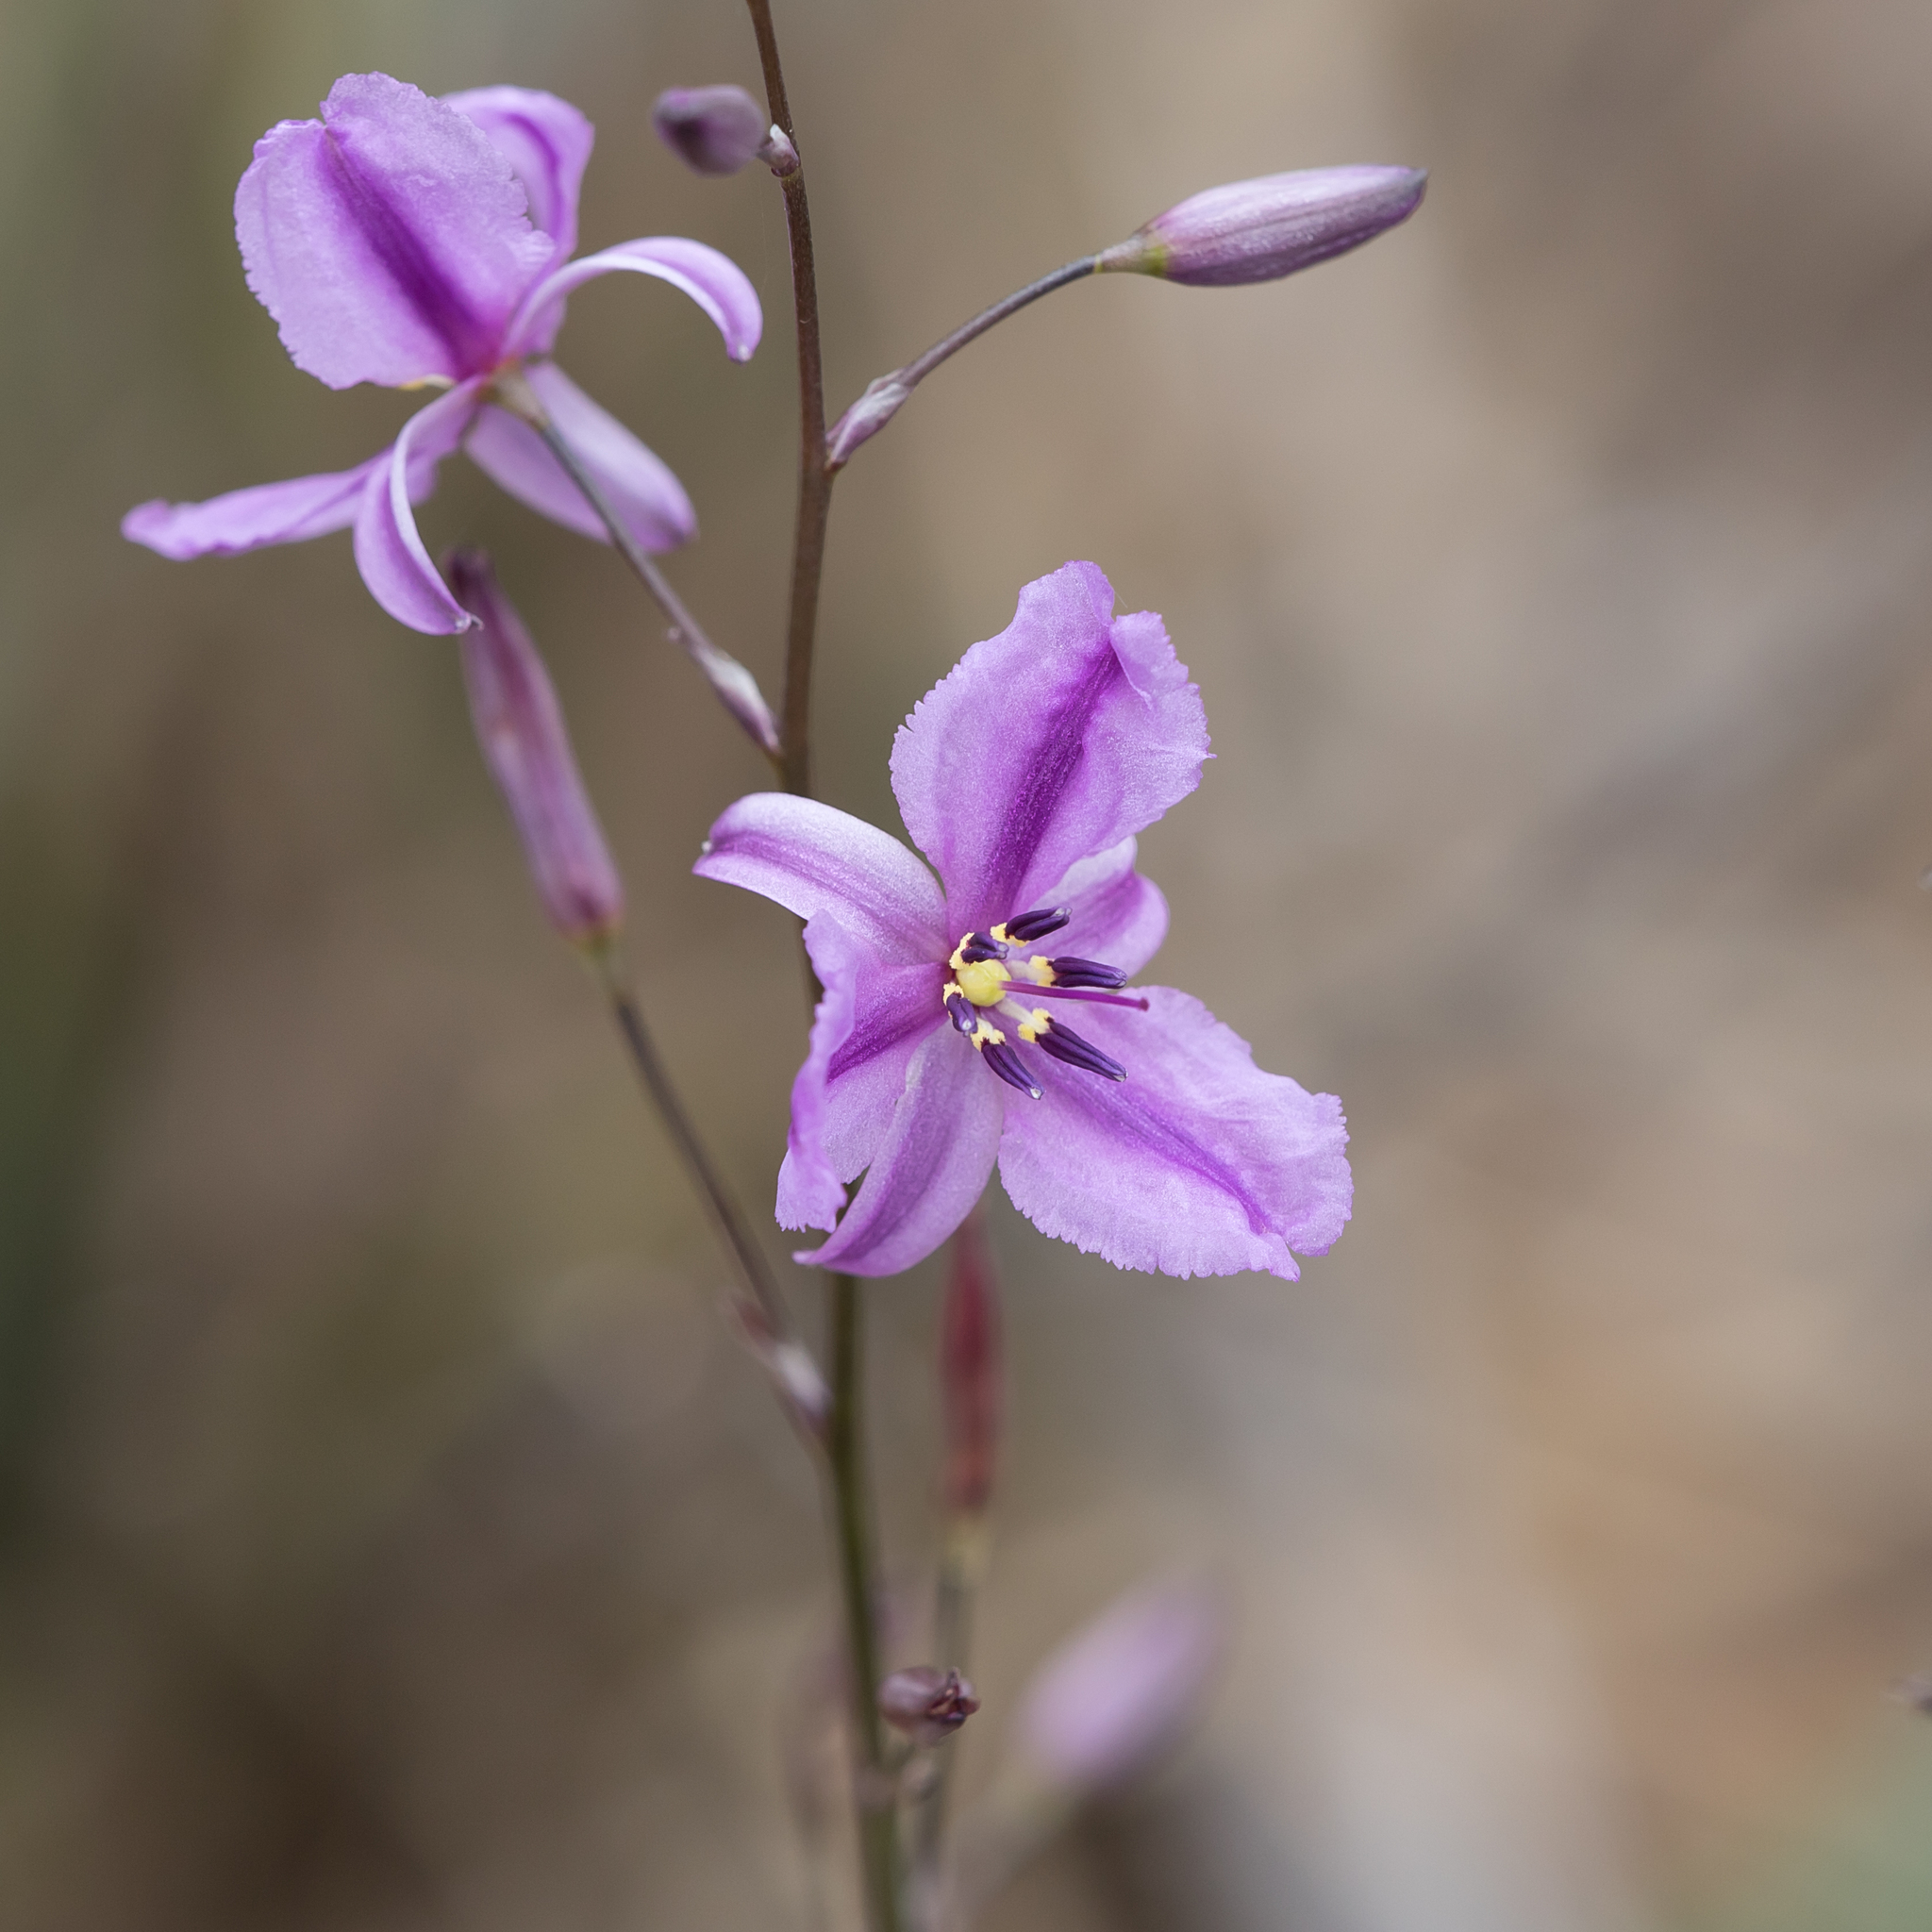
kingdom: Plantae
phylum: Tracheophyta
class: Liliopsida
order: Asparagales
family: Asparagaceae
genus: Arthropodium
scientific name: Arthropodium strictum
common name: Chocolate-lily
